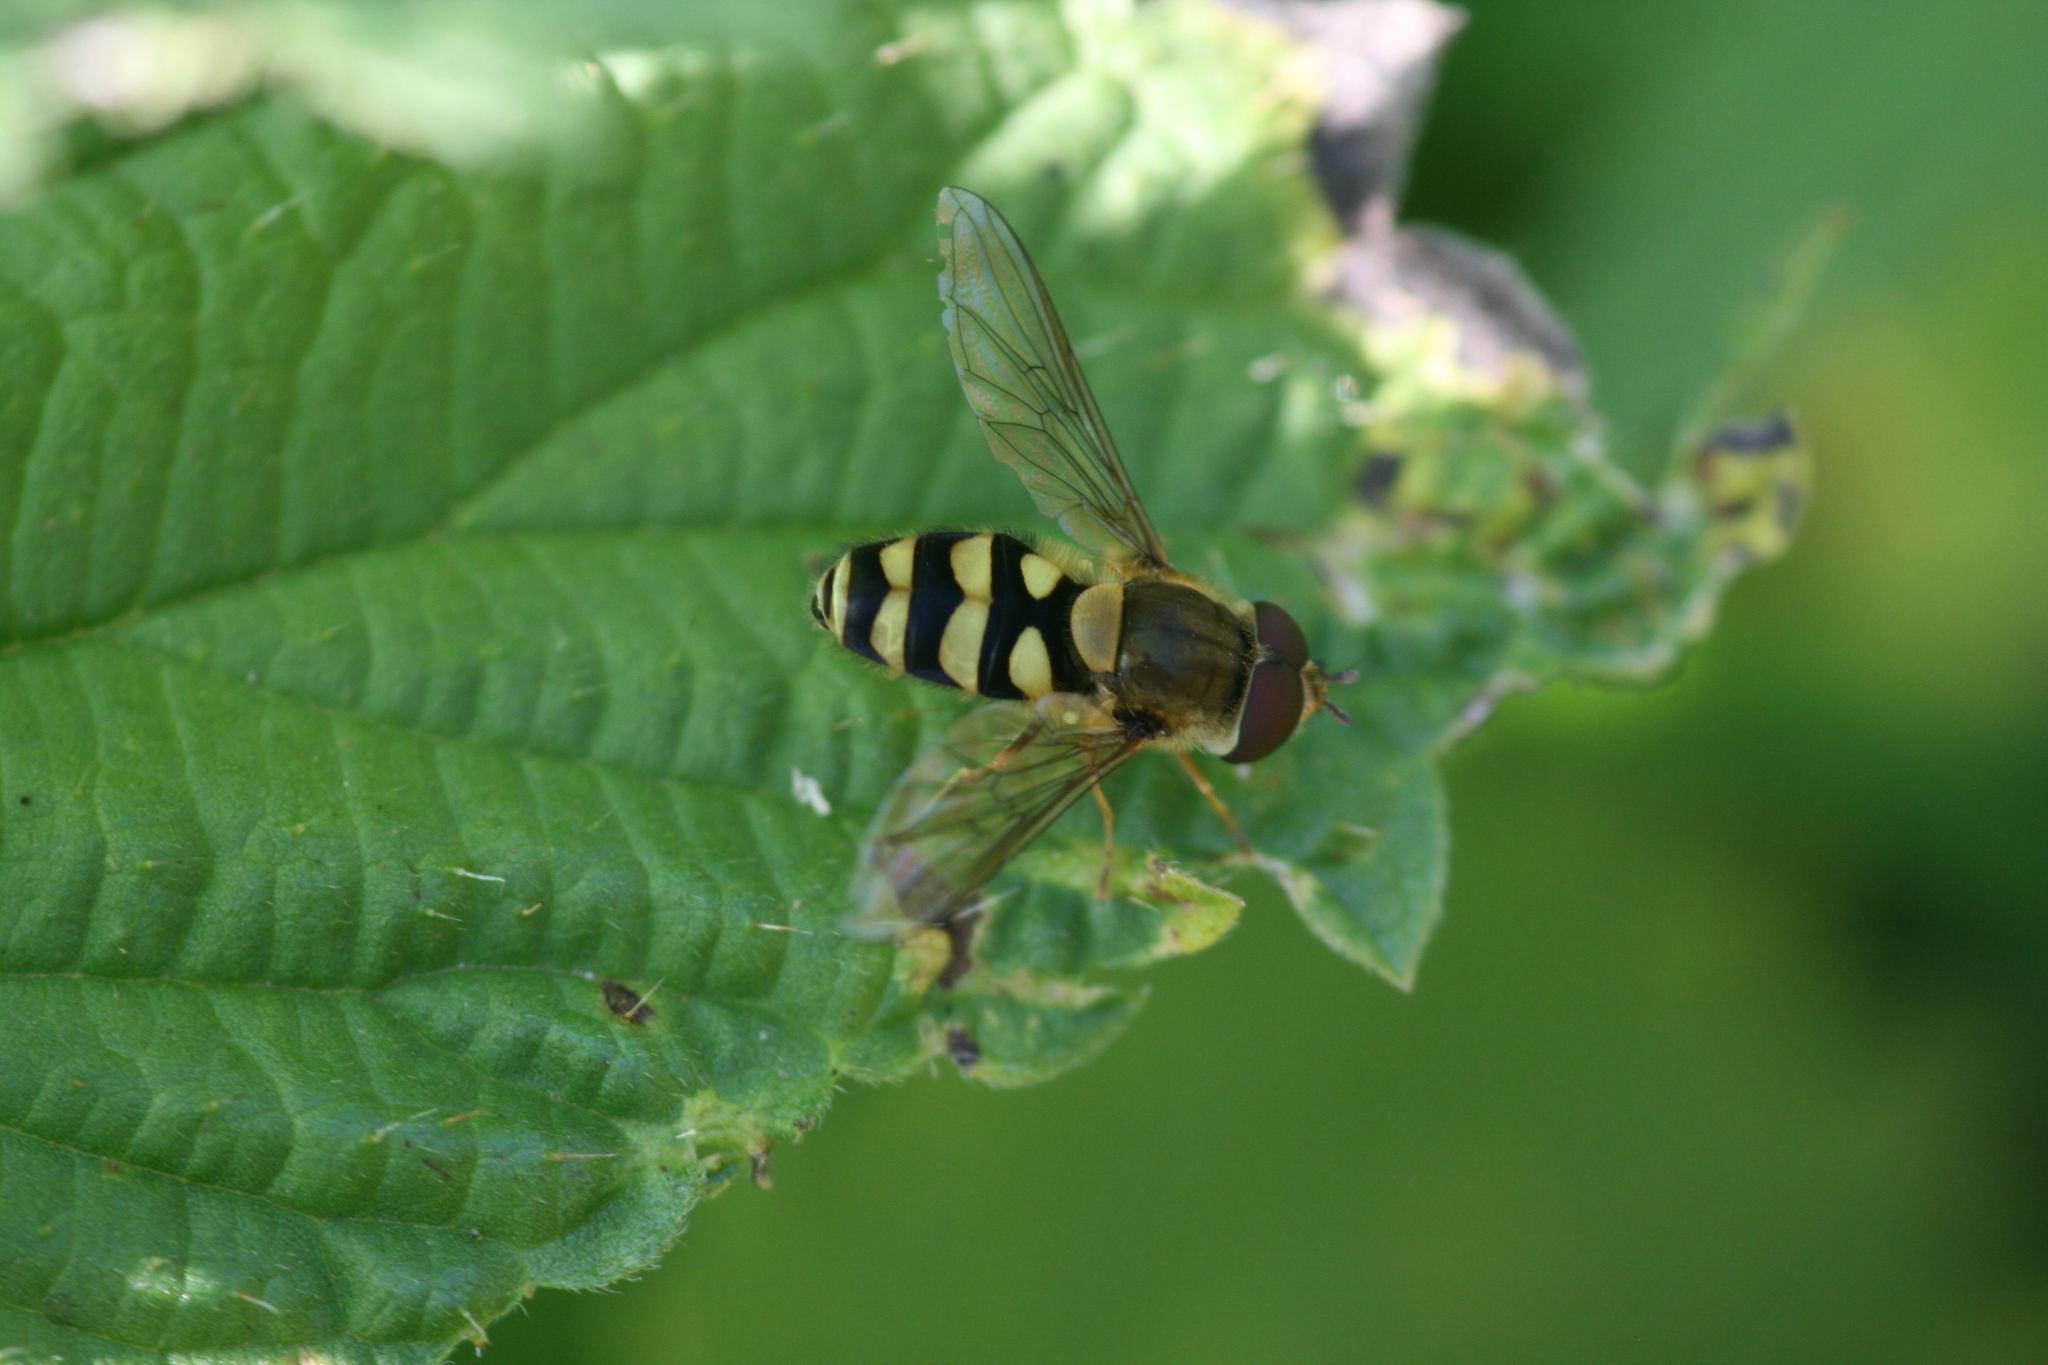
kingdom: Animalia
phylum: Arthropoda
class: Insecta
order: Diptera
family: Syrphidae
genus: Syrphus
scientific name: Syrphus
